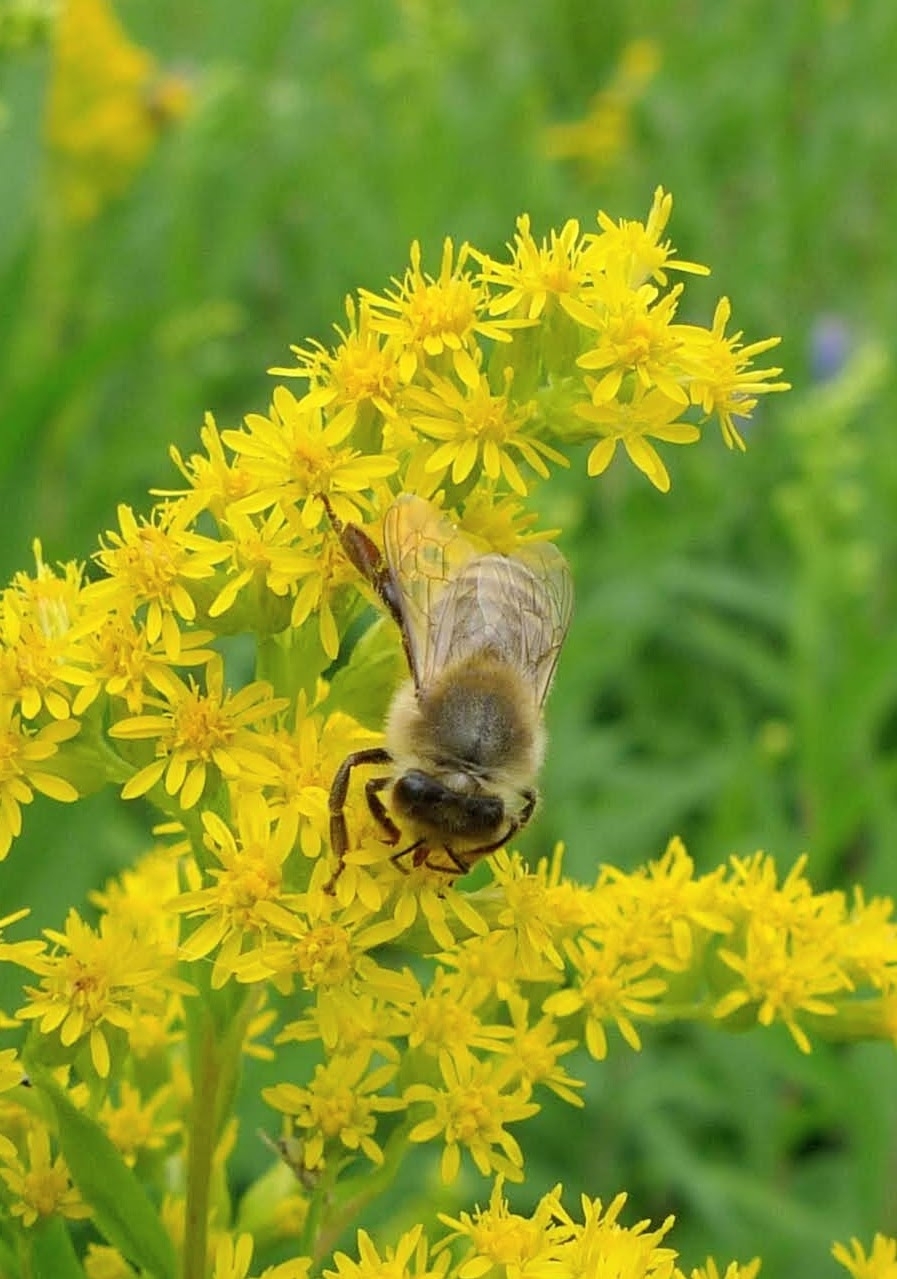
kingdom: Animalia
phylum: Arthropoda
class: Insecta
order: Hymenoptera
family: Apidae
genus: Apis
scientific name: Apis mellifera
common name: Honey bee
